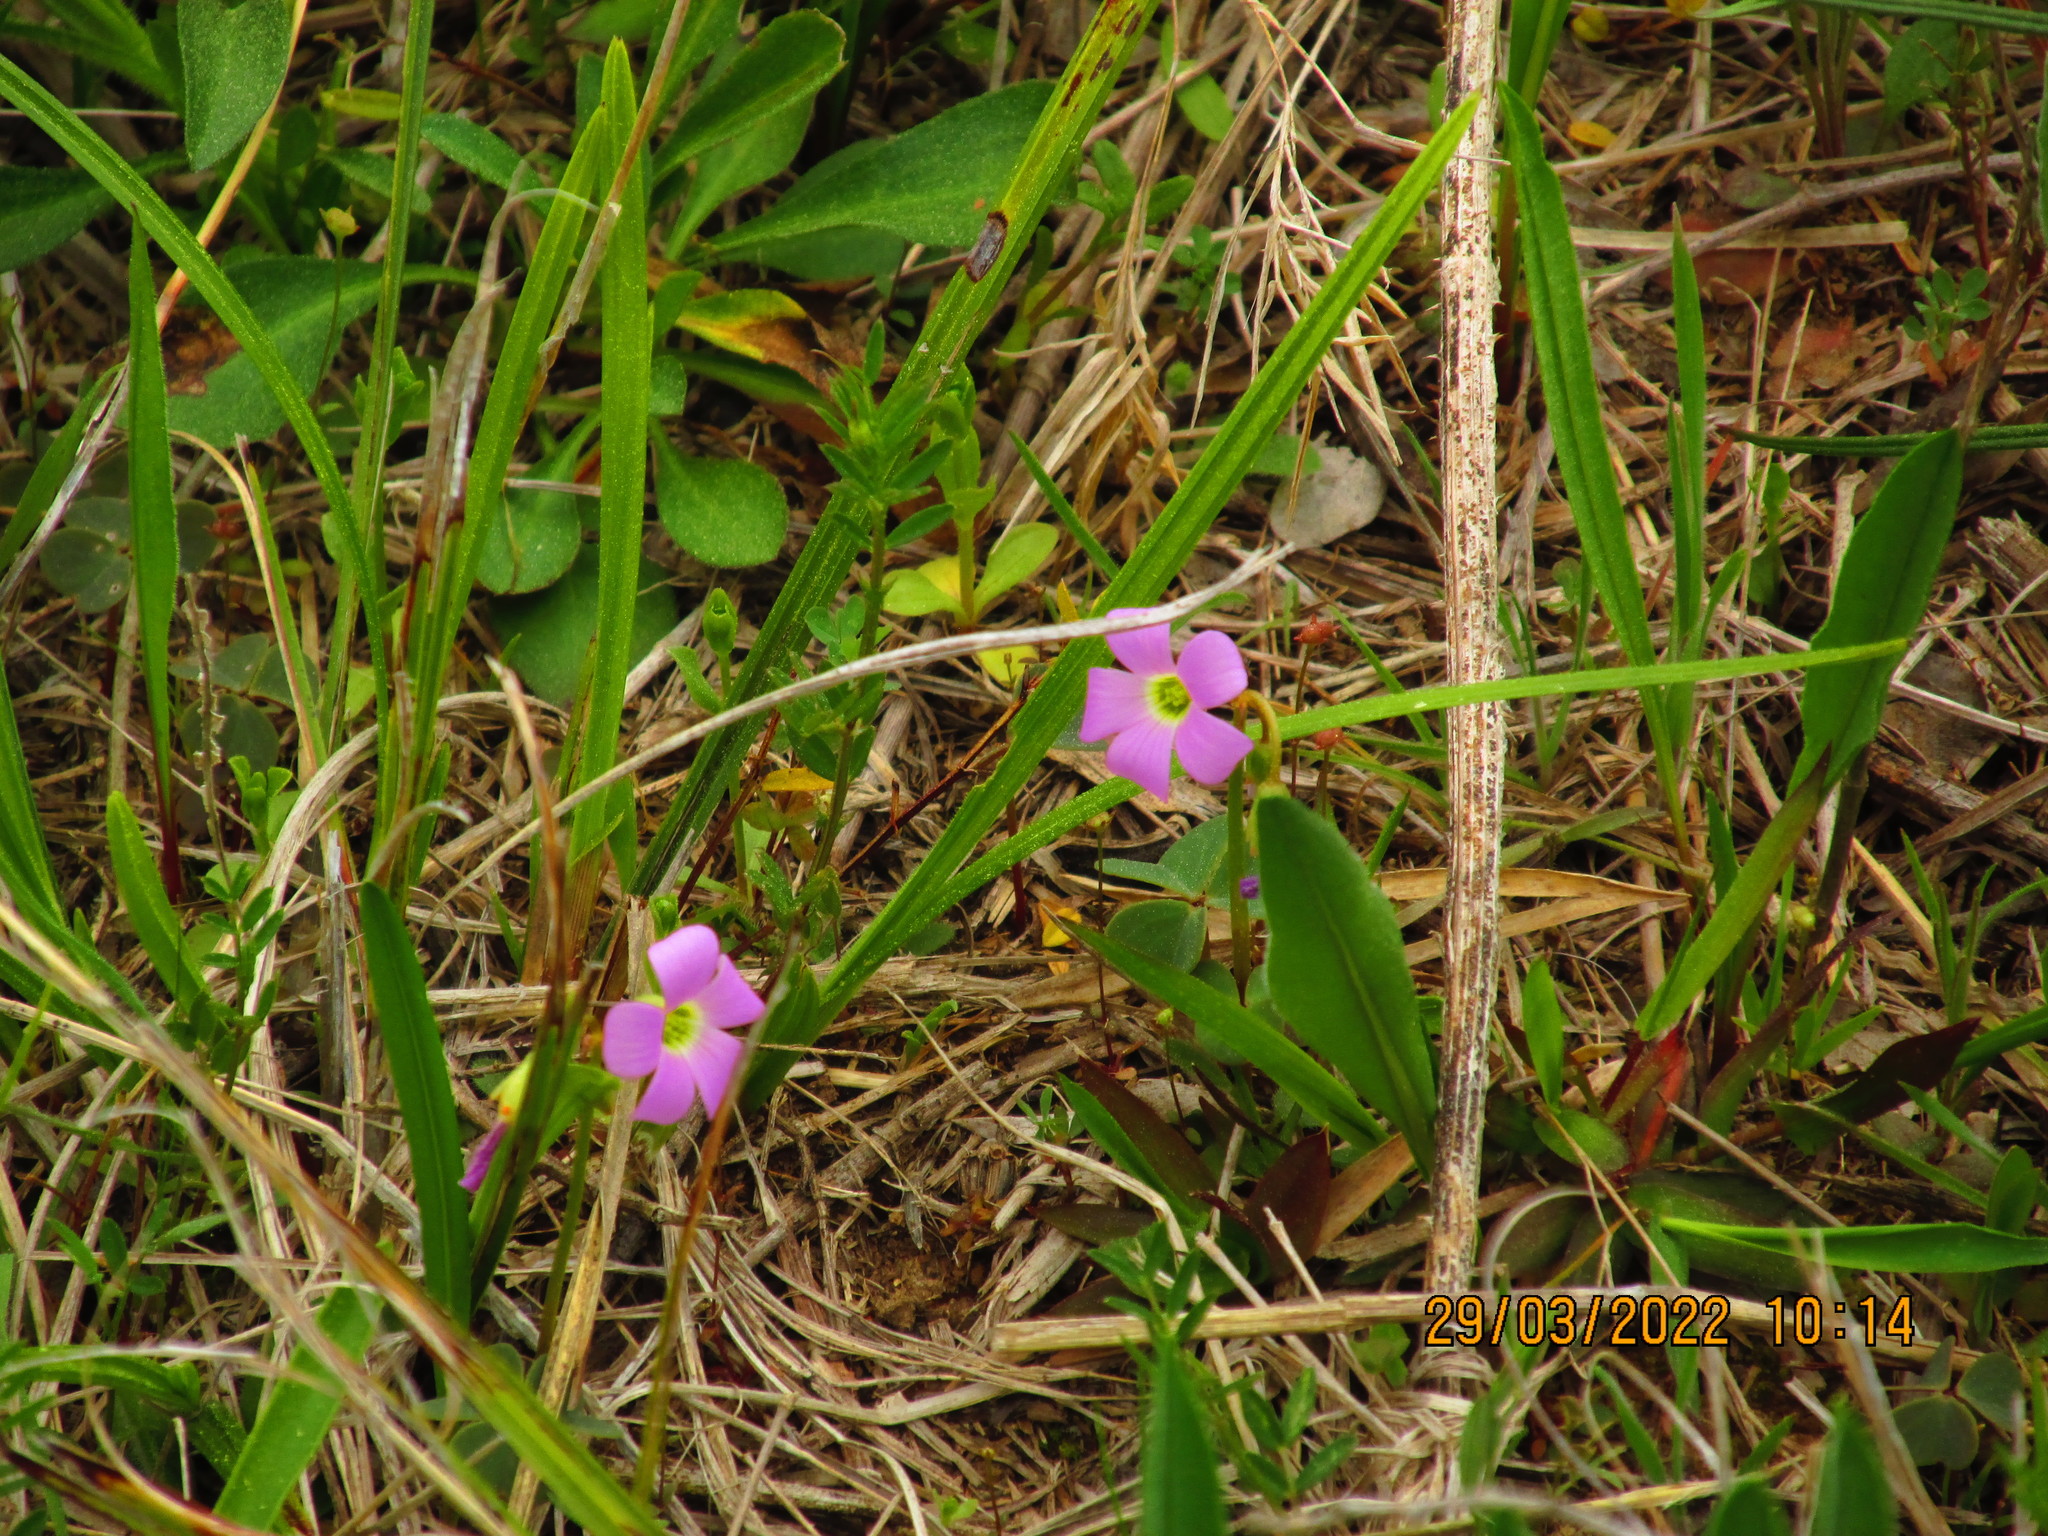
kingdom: Plantae
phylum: Tracheophyta
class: Magnoliopsida
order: Oxalidales
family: Oxalidaceae
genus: Oxalis
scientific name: Oxalis violacea
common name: Violet wood-sorrel
